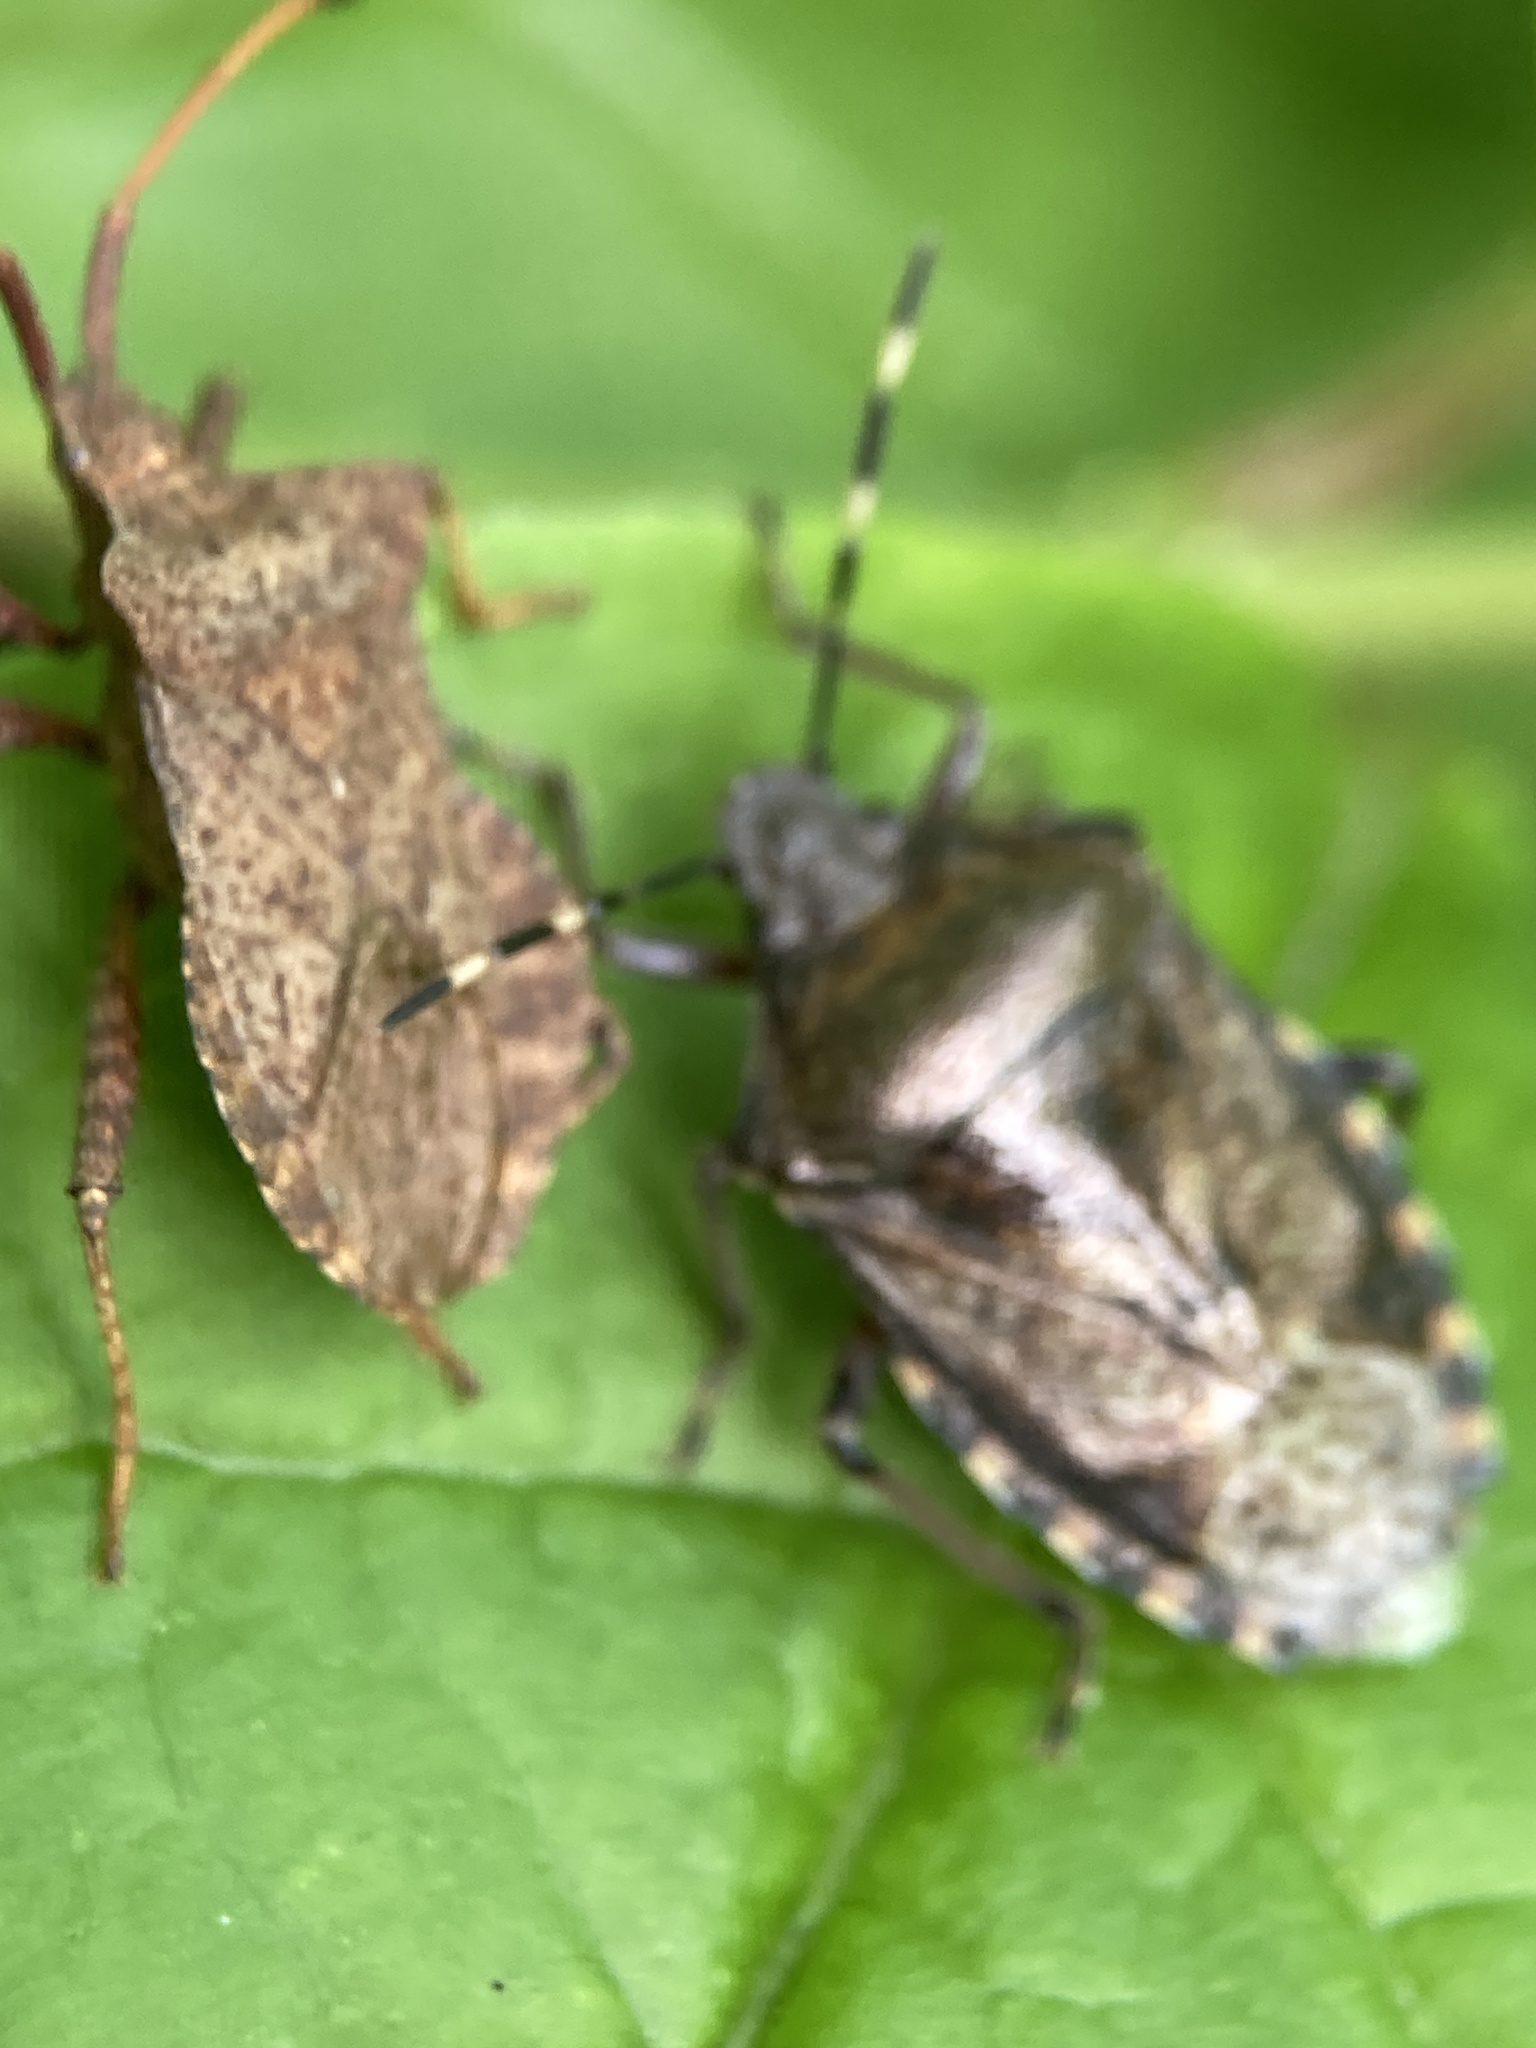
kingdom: Animalia
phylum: Arthropoda
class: Insecta
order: Hemiptera
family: Coreidae
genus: Coreus
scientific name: Coreus marginatus
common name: Dock bug
